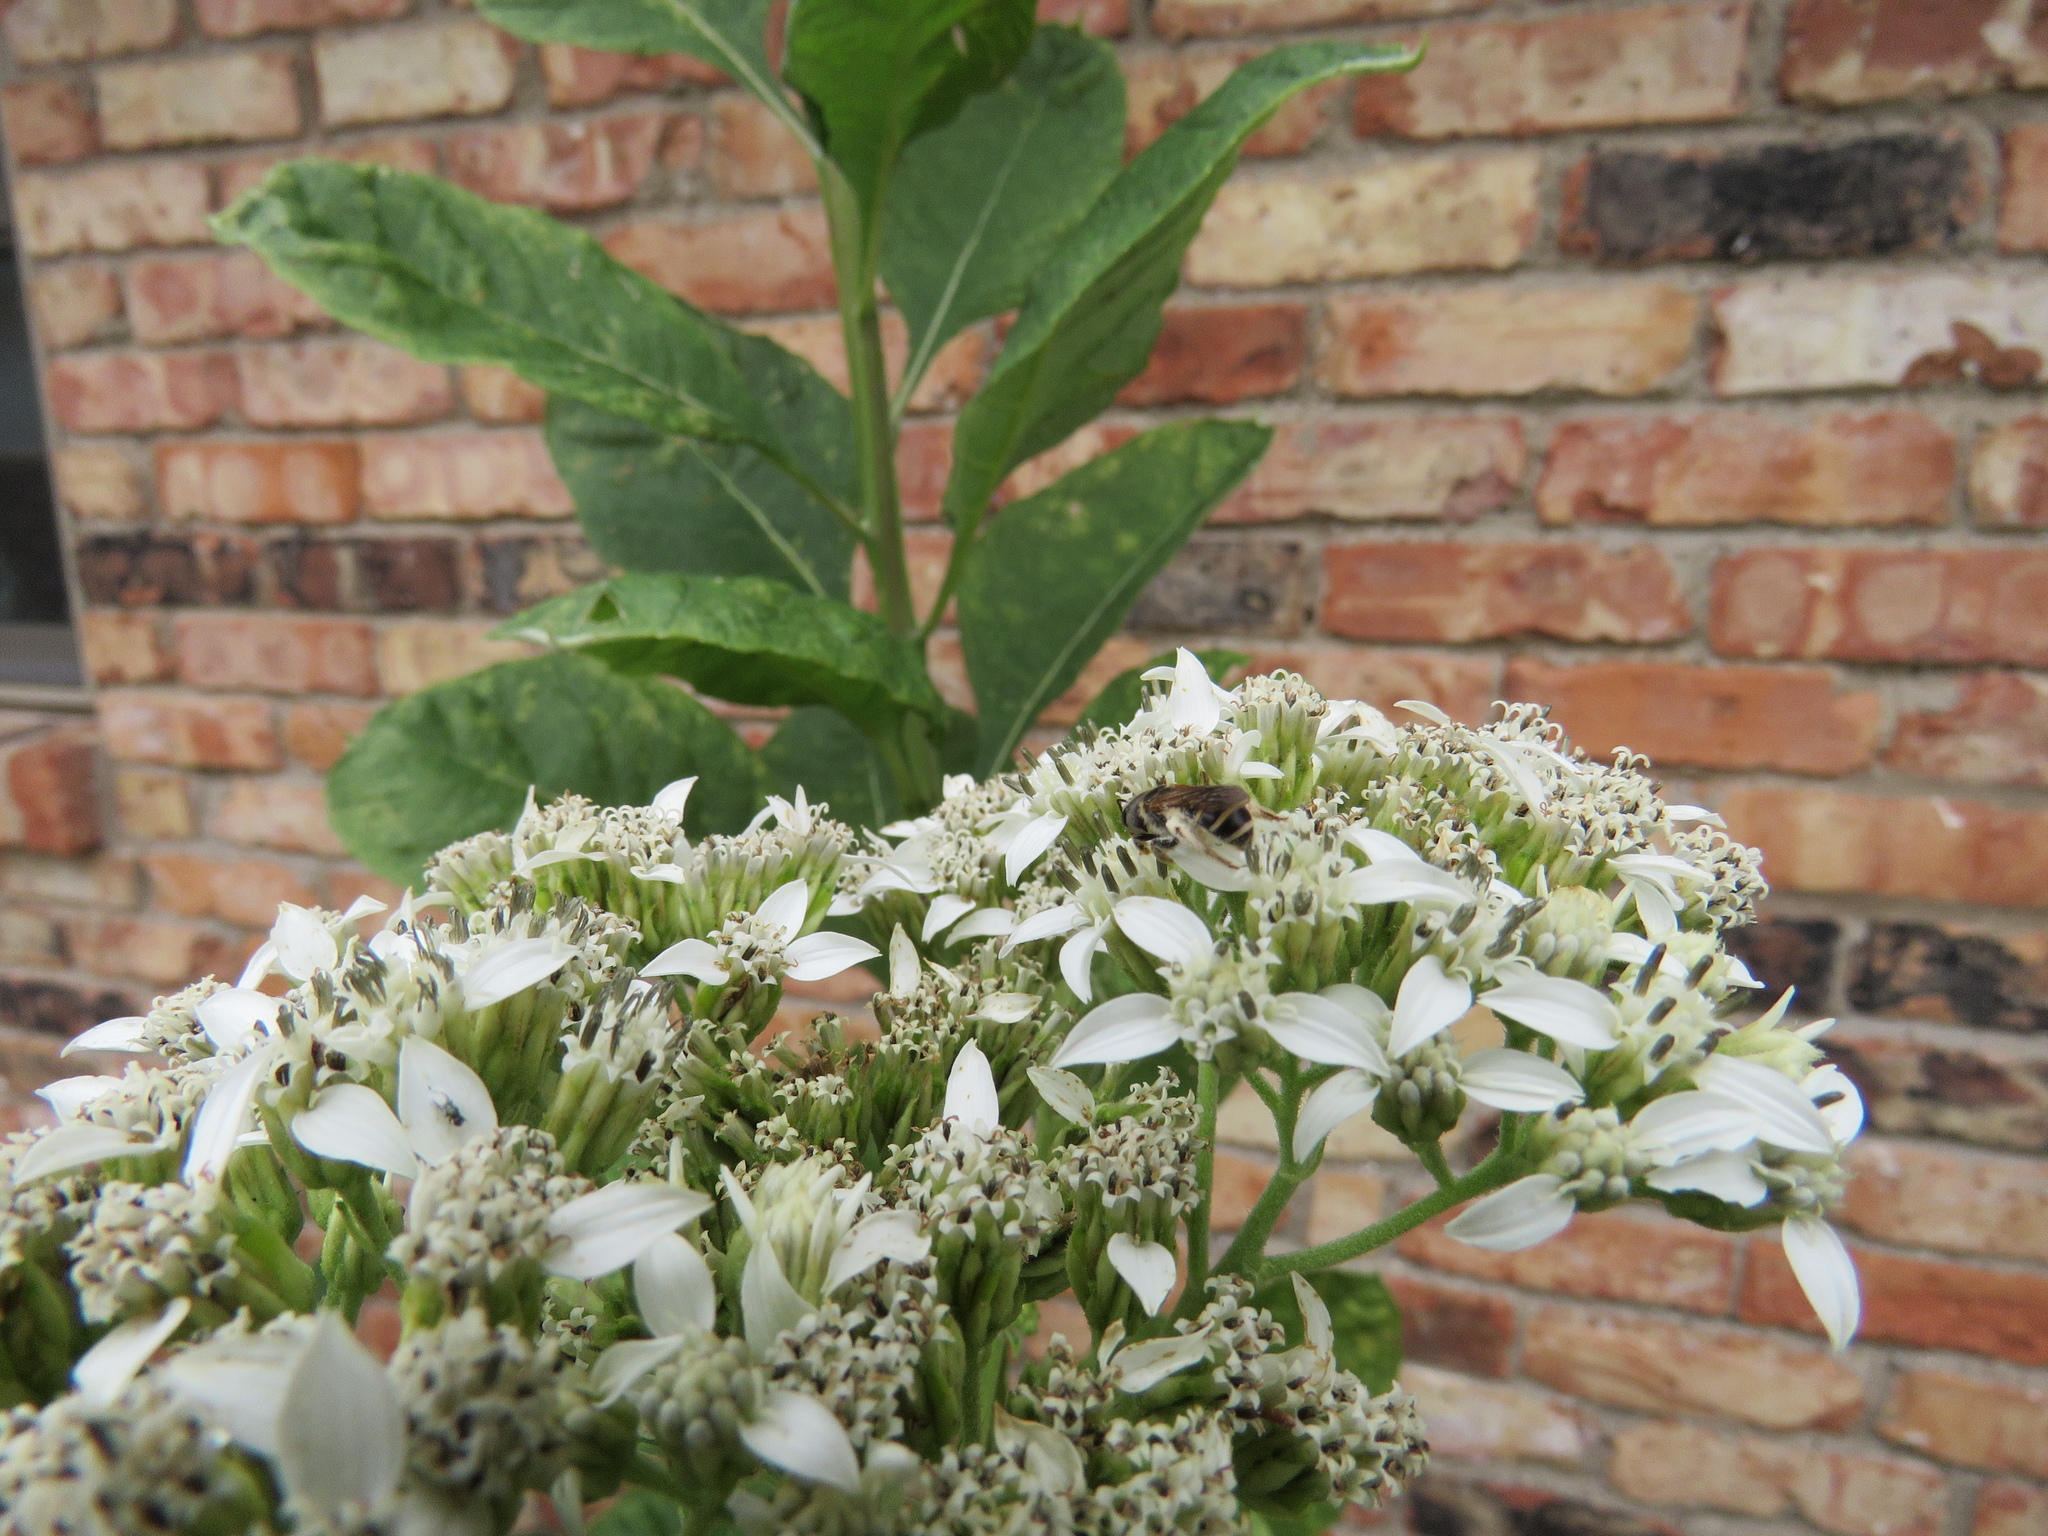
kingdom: Animalia
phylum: Arthropoda
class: Insecta
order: Diptera
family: Syrphidae
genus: Palpada
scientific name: Palpada vinetorum
